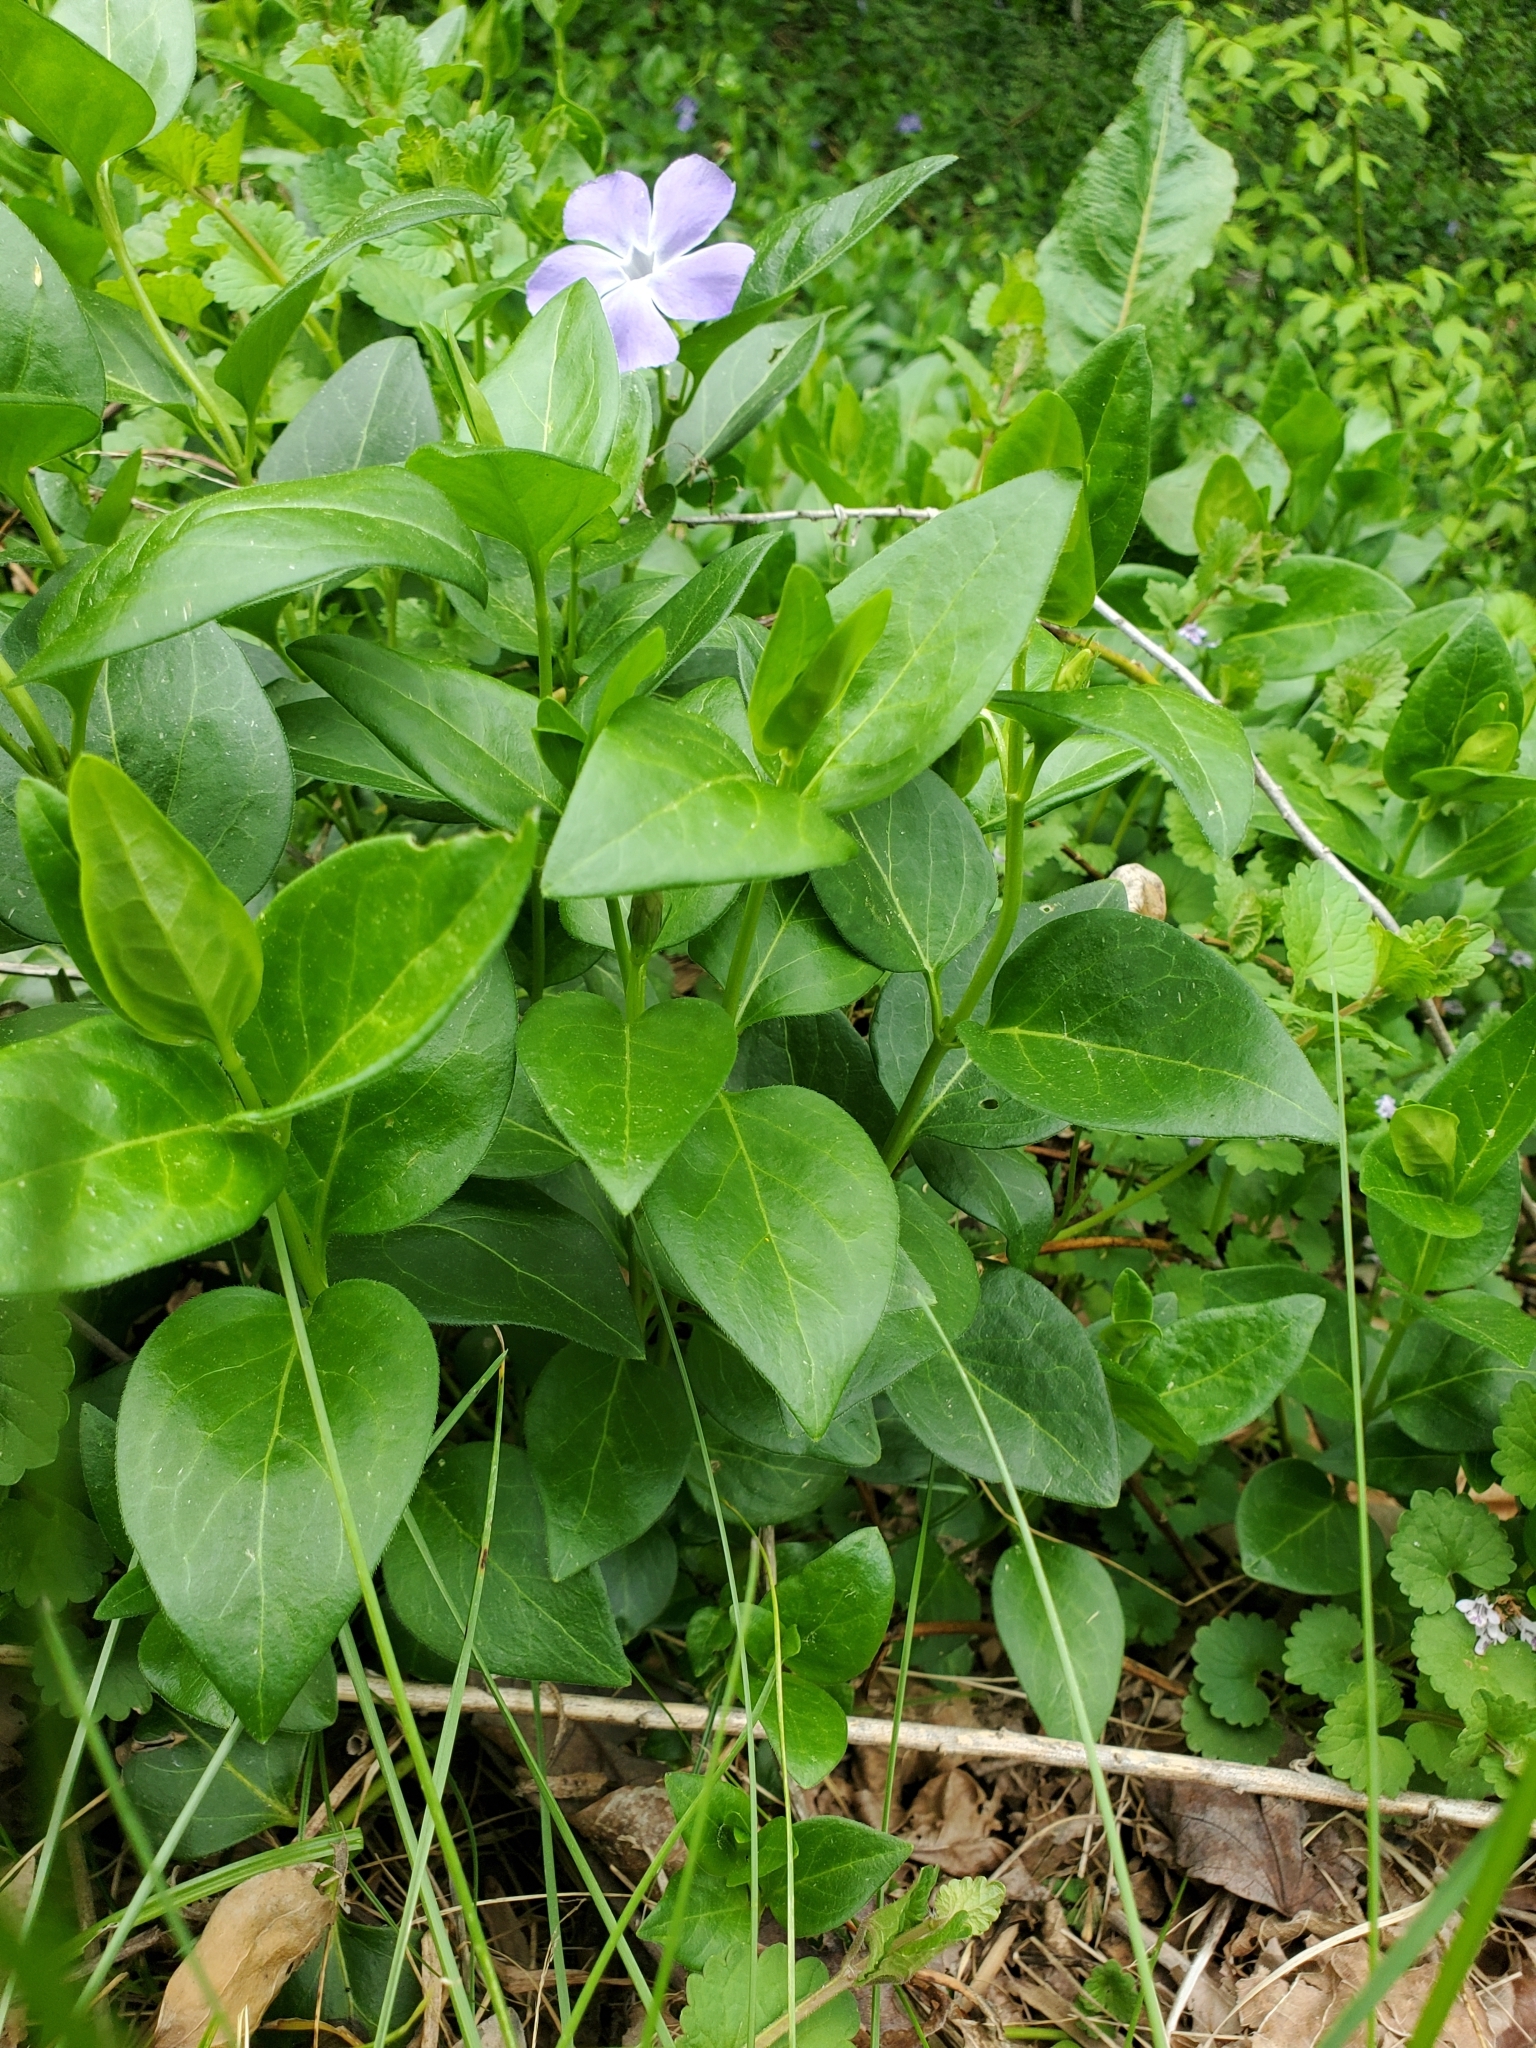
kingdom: Plantae
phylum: Tracheophyta
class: Magnoliopsida
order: Gentianales
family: Apocynaceae
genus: Vinca
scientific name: Vinca major
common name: Greater periwinkle
